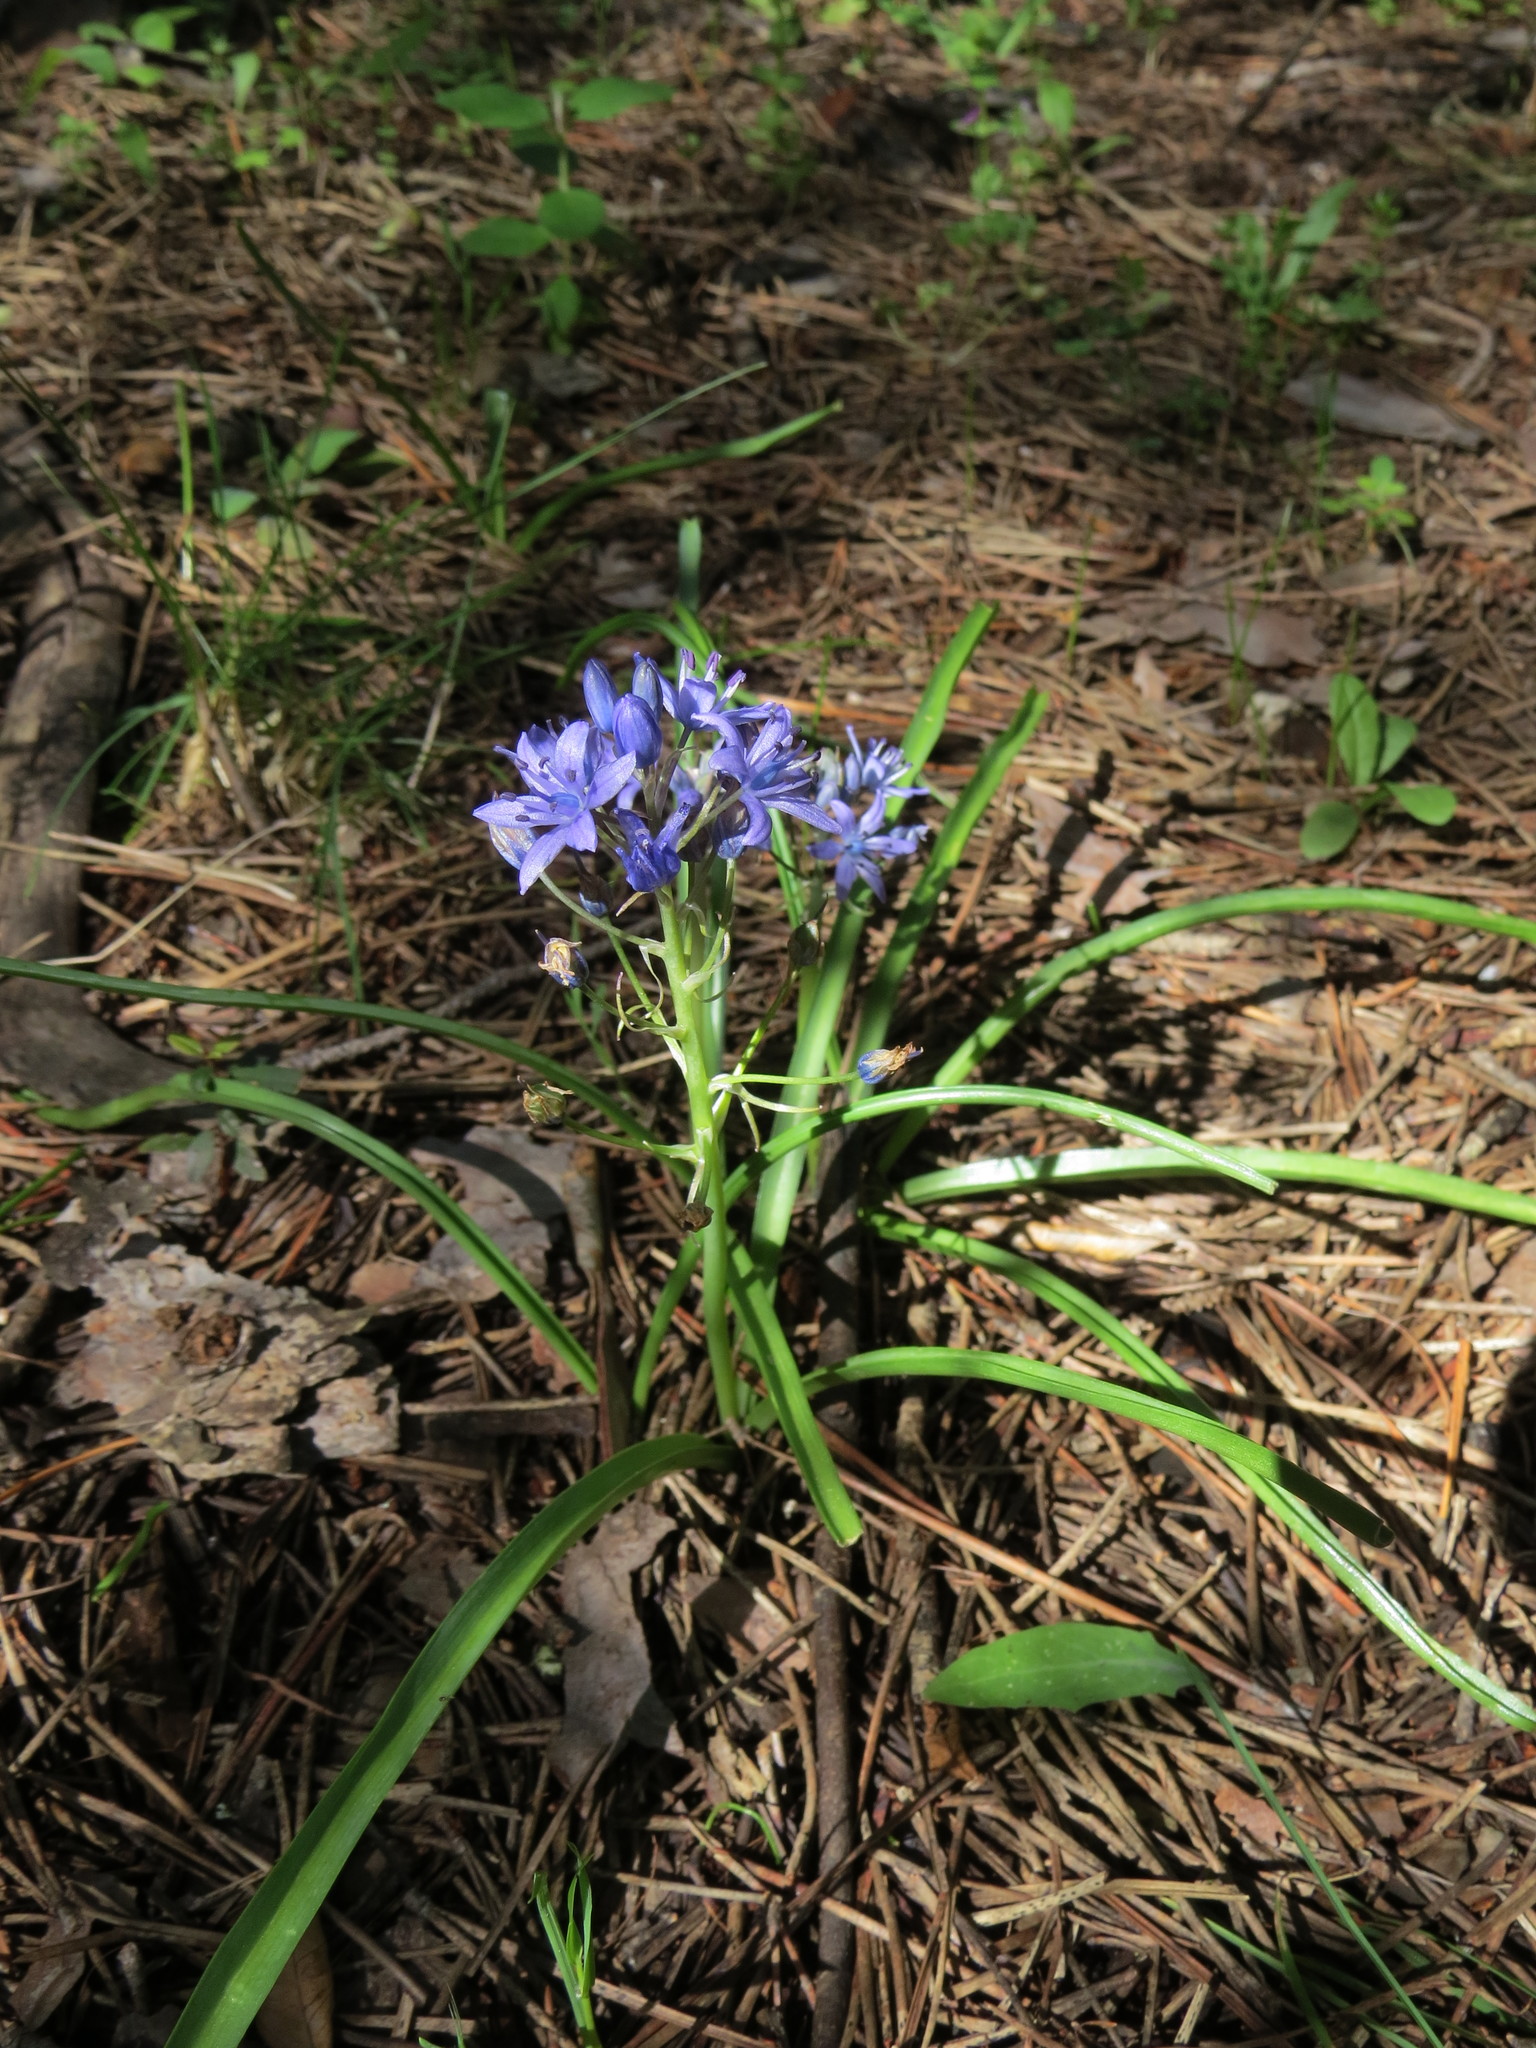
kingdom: Plantae
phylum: Tracheophyta
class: Liliopsida
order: Asparagales
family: Asparagaceae
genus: Scilla
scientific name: Scilla verna
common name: Spring squill
